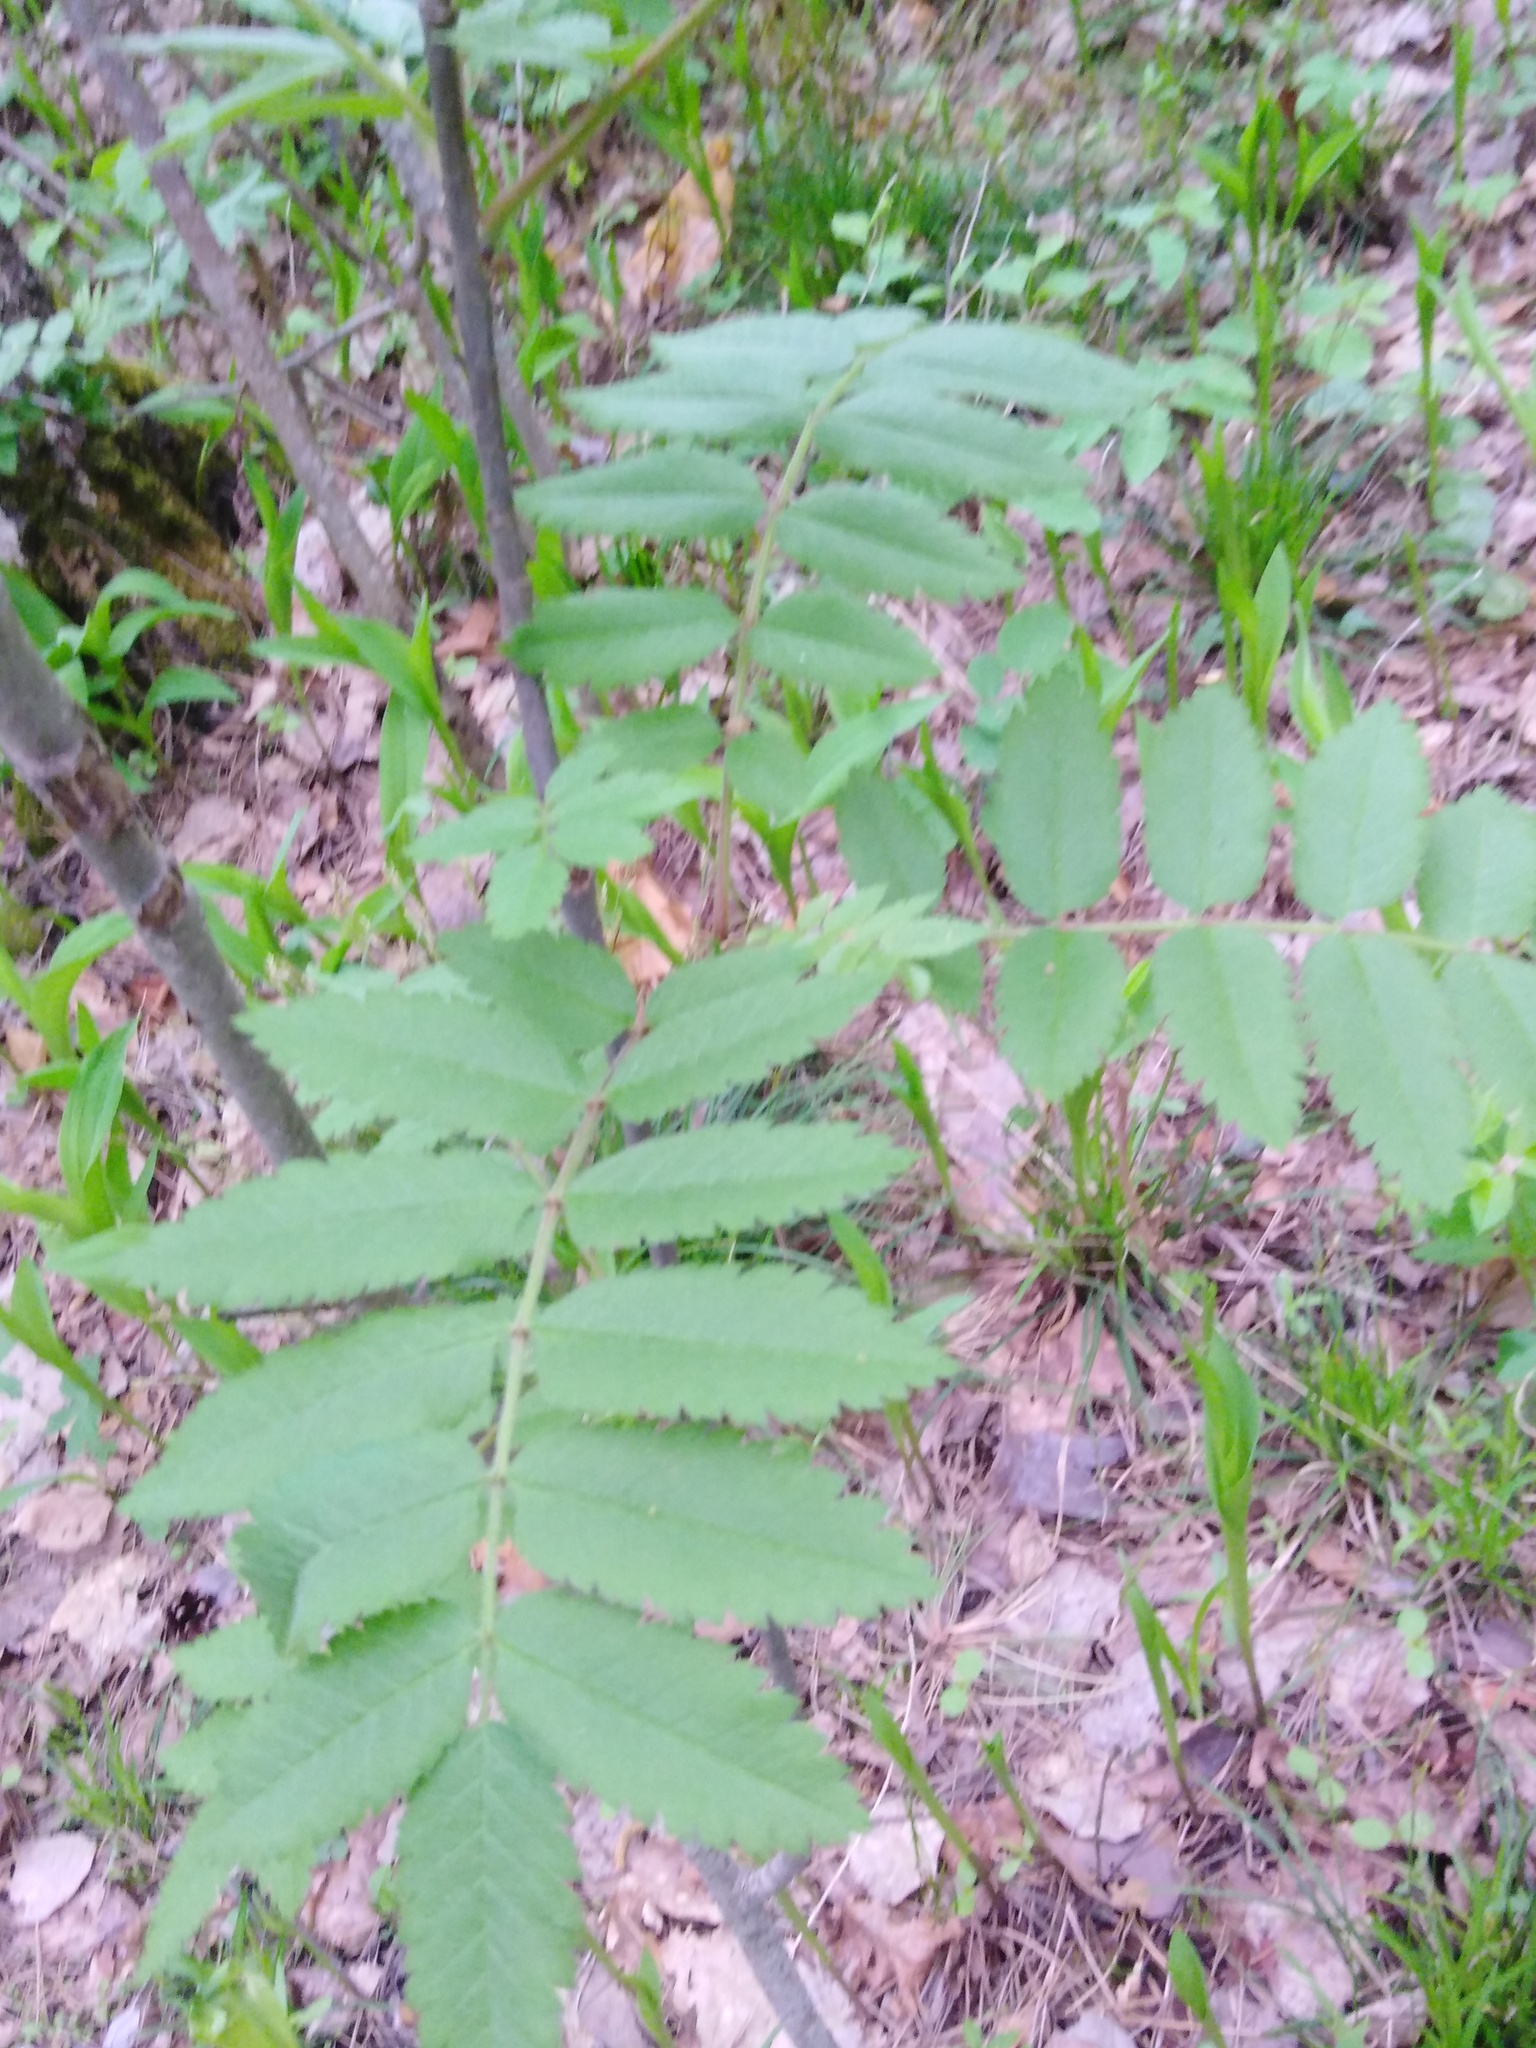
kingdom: Plantae
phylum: Tracheophyta
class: Magnoliopsida
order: Rosales
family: Rosaceae
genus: Sorbus
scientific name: Sorbus aucuparia
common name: Rowan
